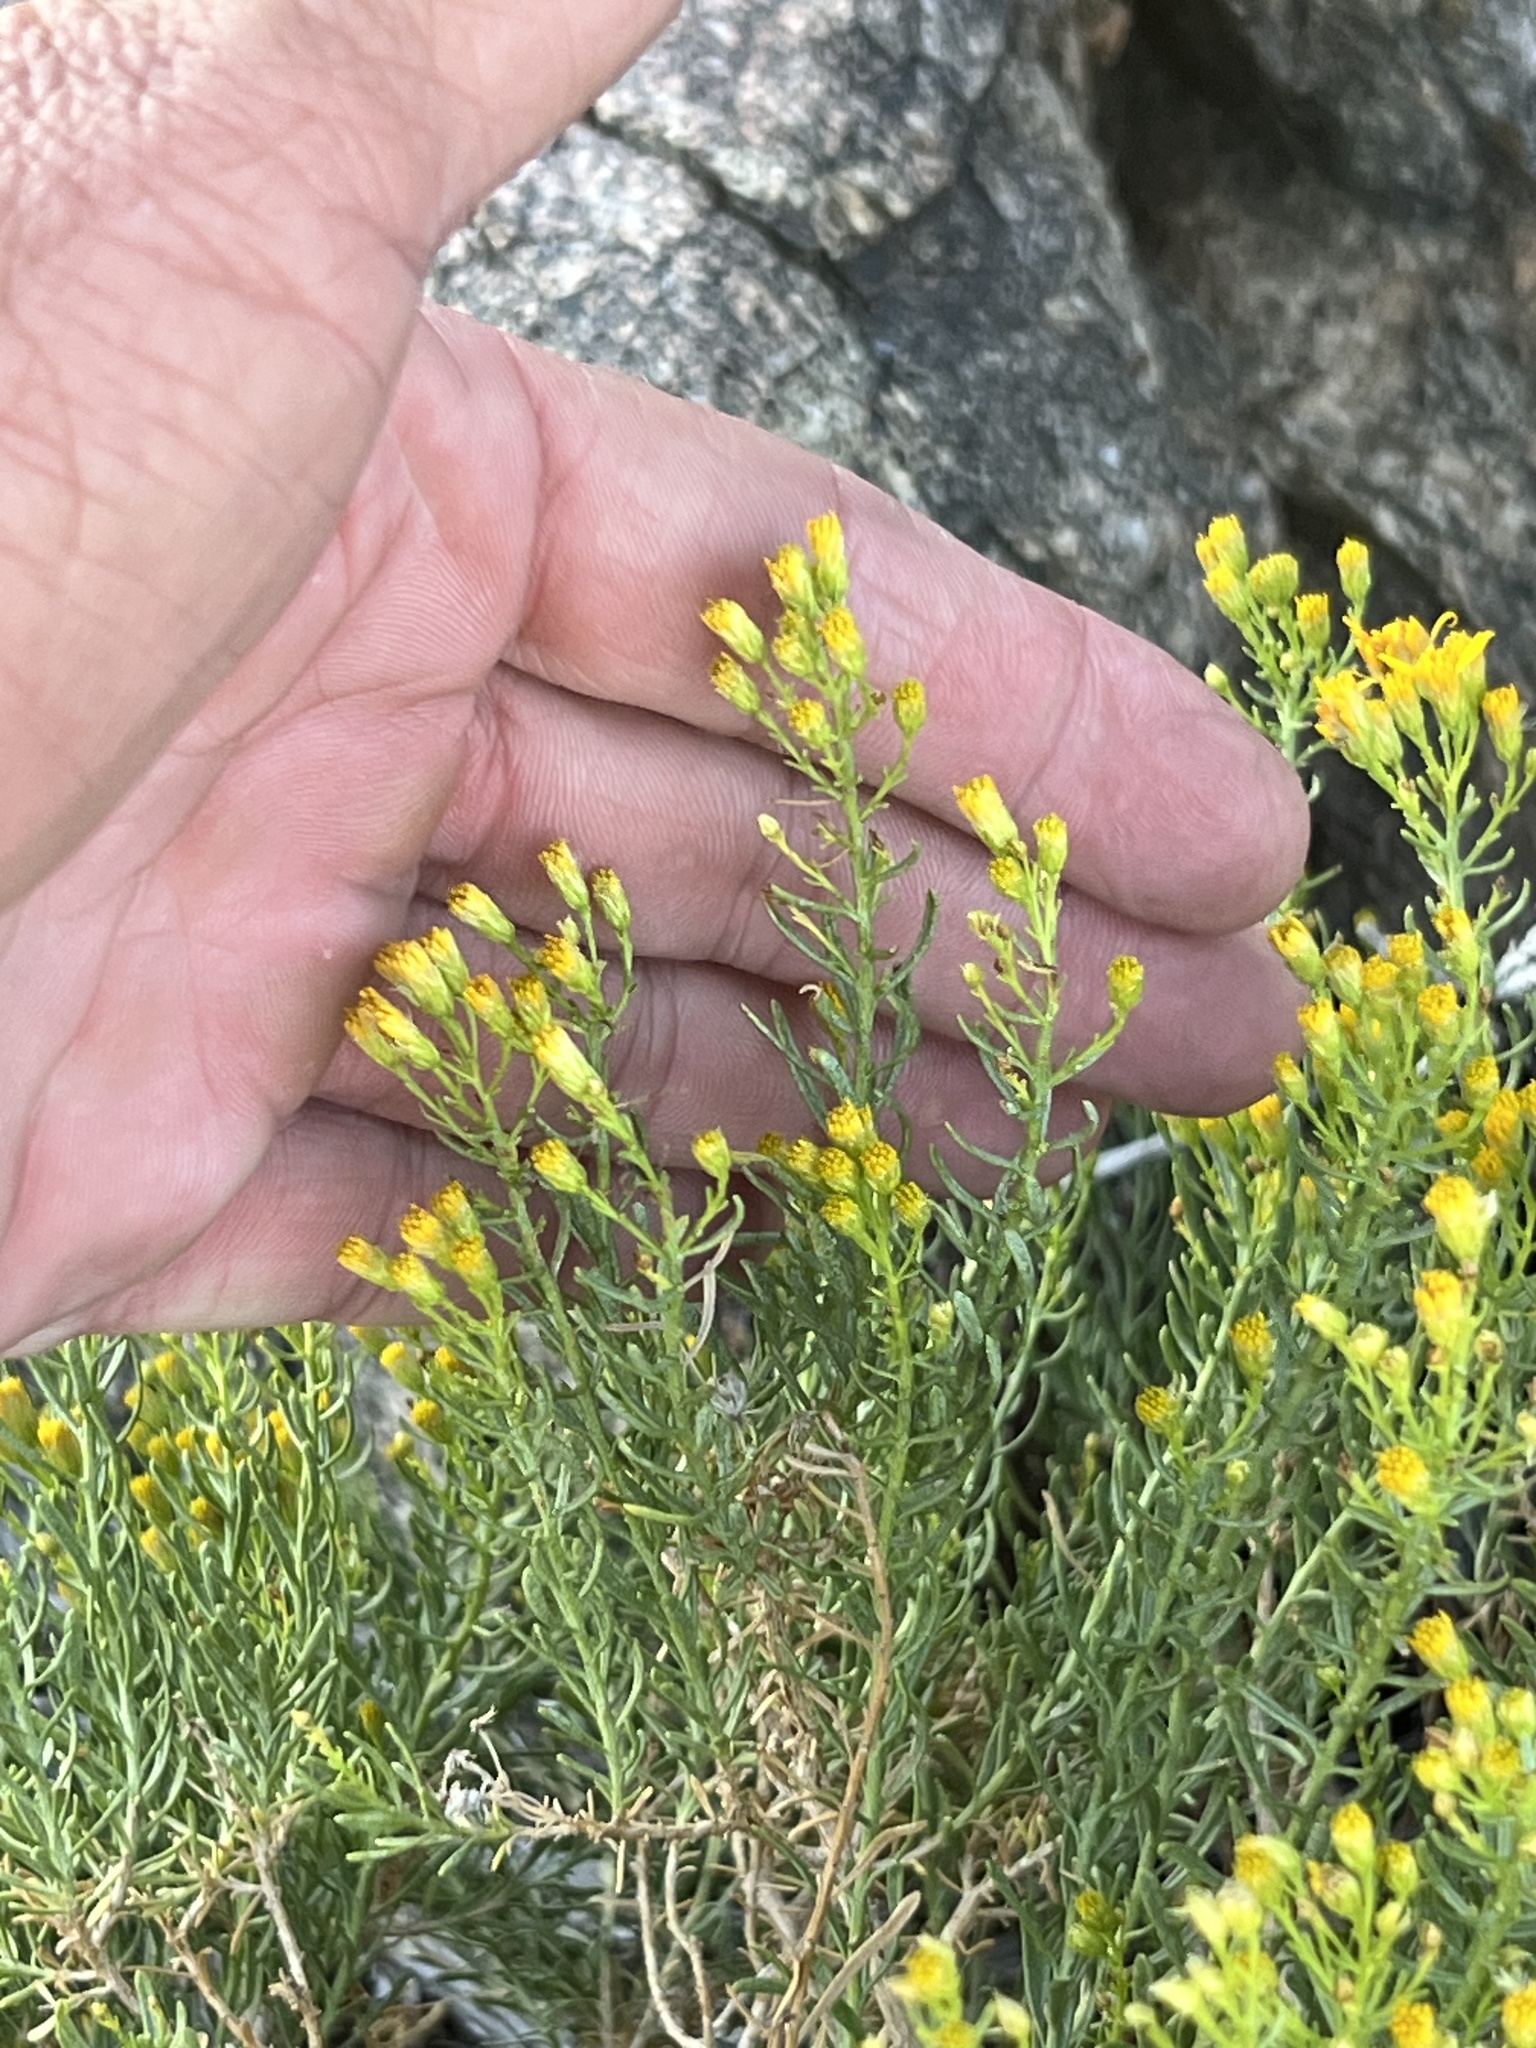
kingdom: Plantae
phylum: Tracheophyta
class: Magnoliopsida
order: Asterales
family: Asteraceae
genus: Ericameria
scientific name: Ericameria laricifolia
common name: Turpentine-bush
